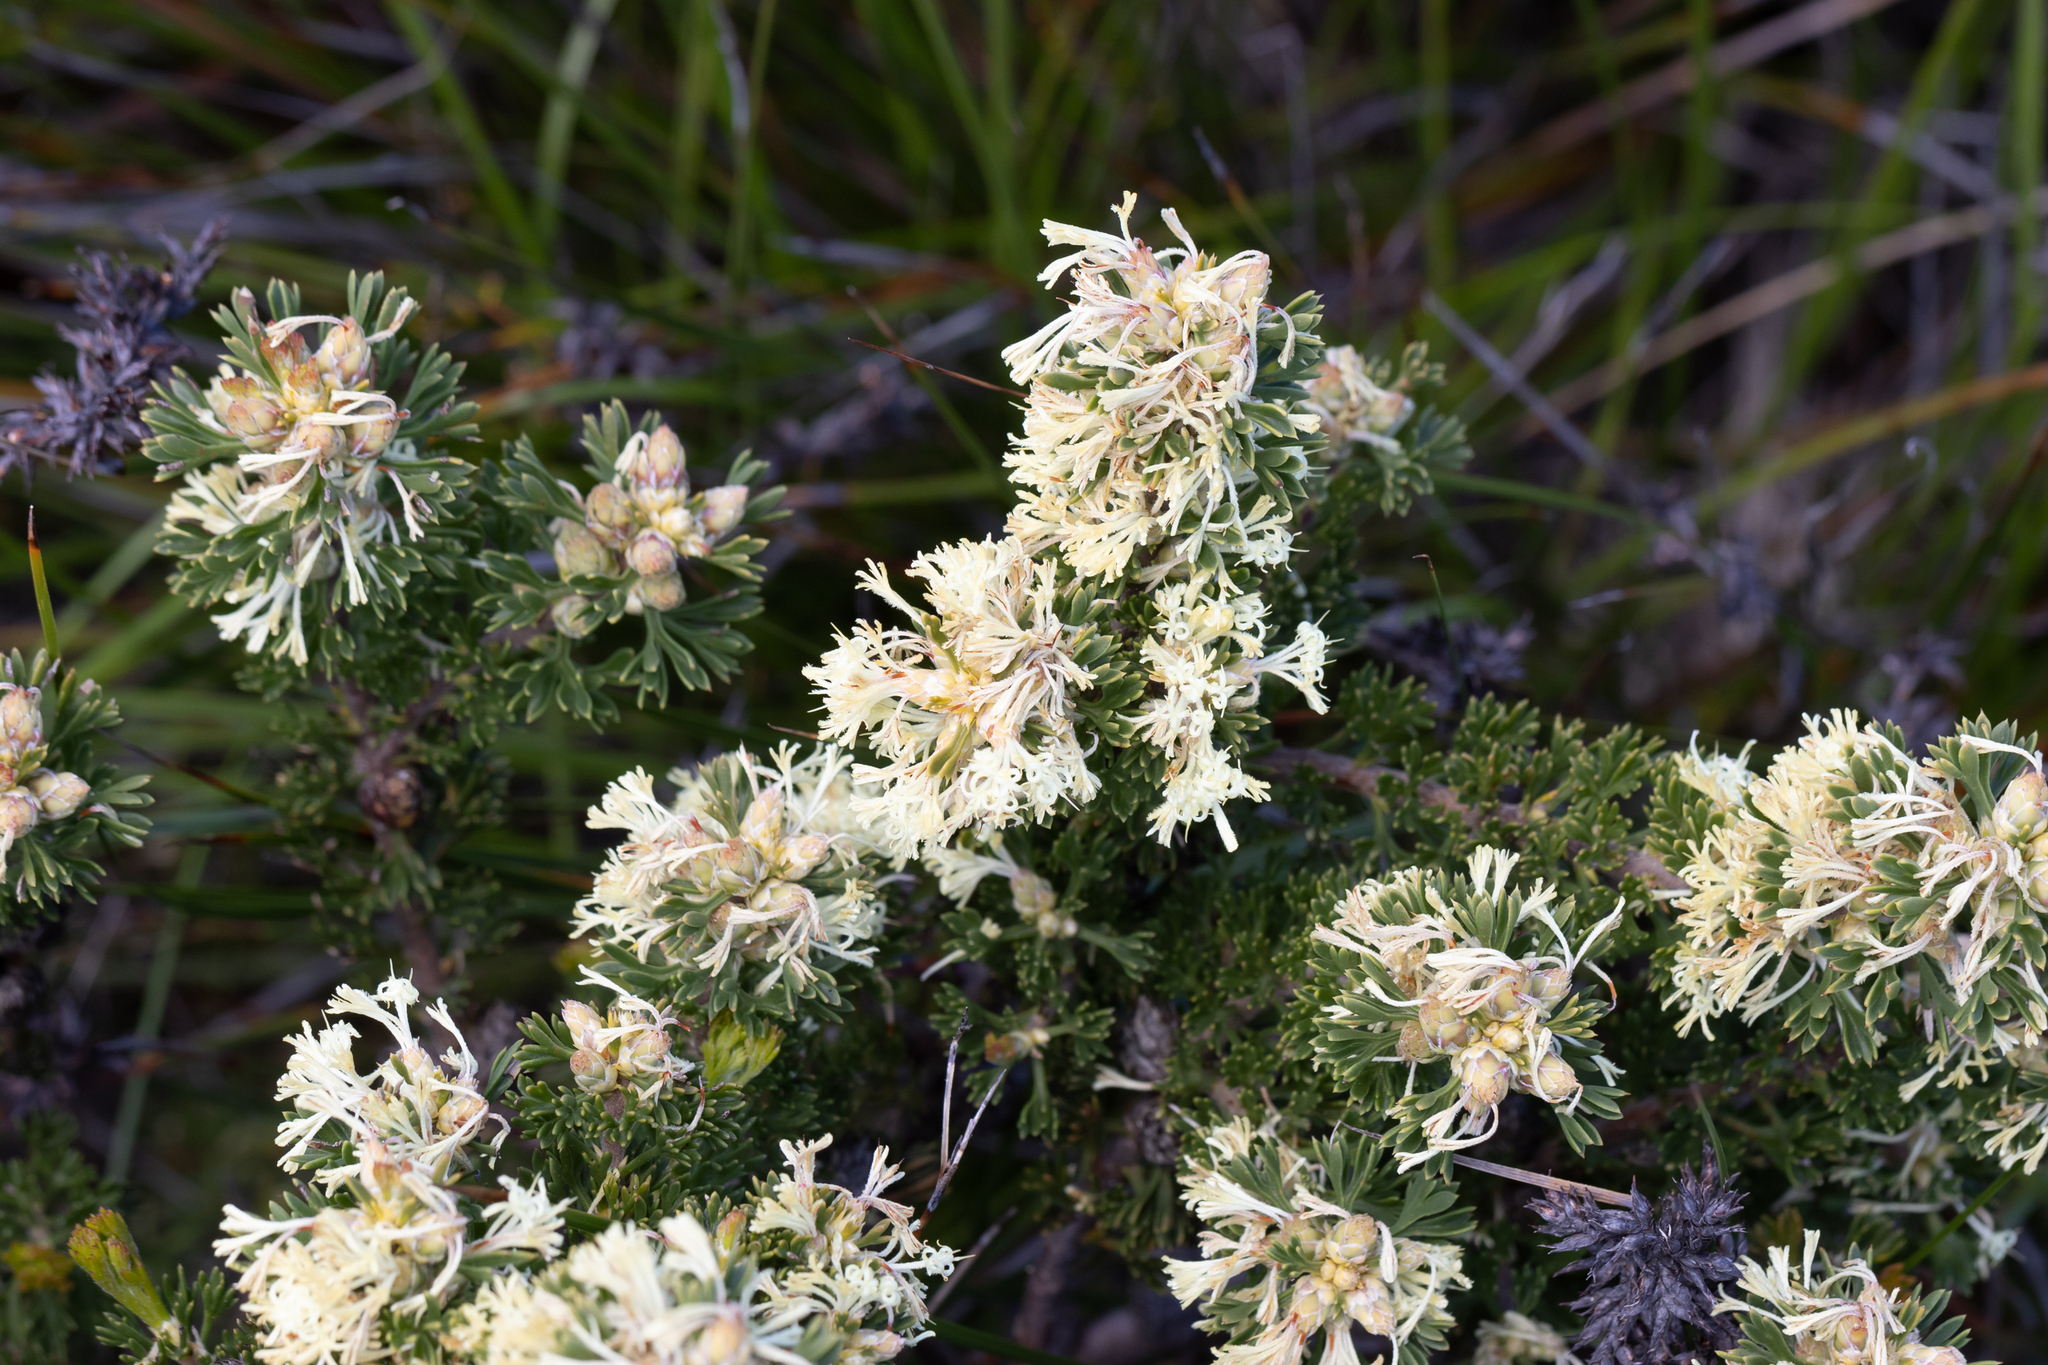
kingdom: Plantae
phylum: Tracheophyta
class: Magnoliopsida
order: Proteales
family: Proteaceae
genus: Petrophile
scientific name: Petrophile squamata
